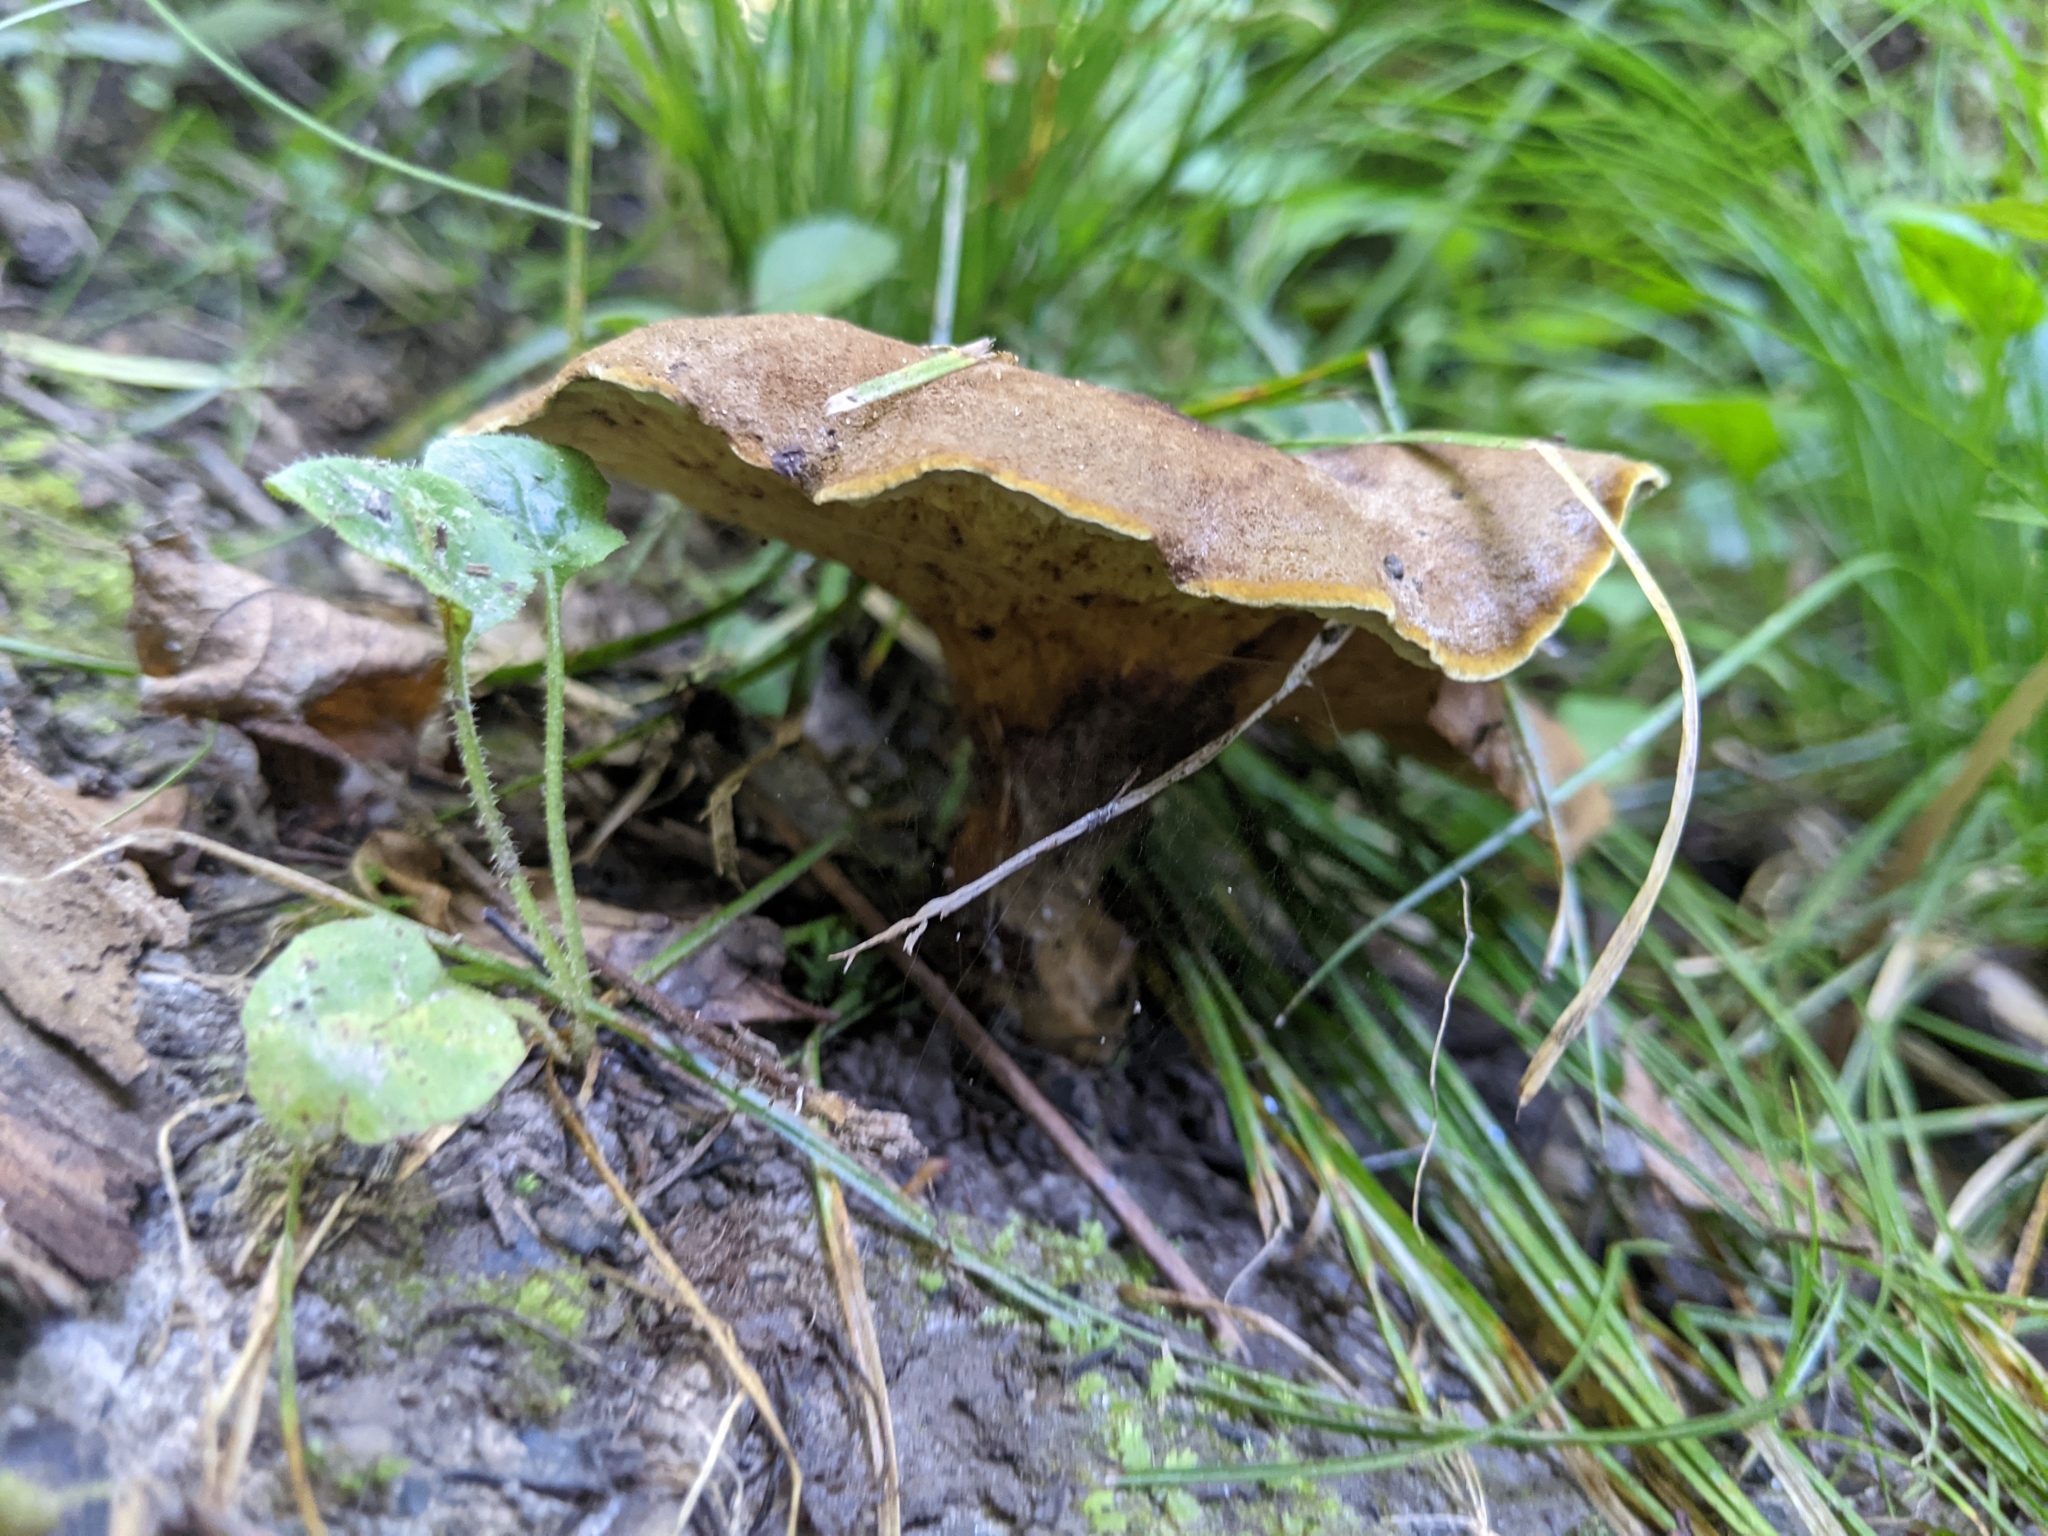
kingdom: Fungi
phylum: Basidiomycota
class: Agaricomycetes
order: Boletales
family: Boletinellaceae
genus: Boletinellus
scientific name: Boletinellus merulioides
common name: Ash tree bolete
